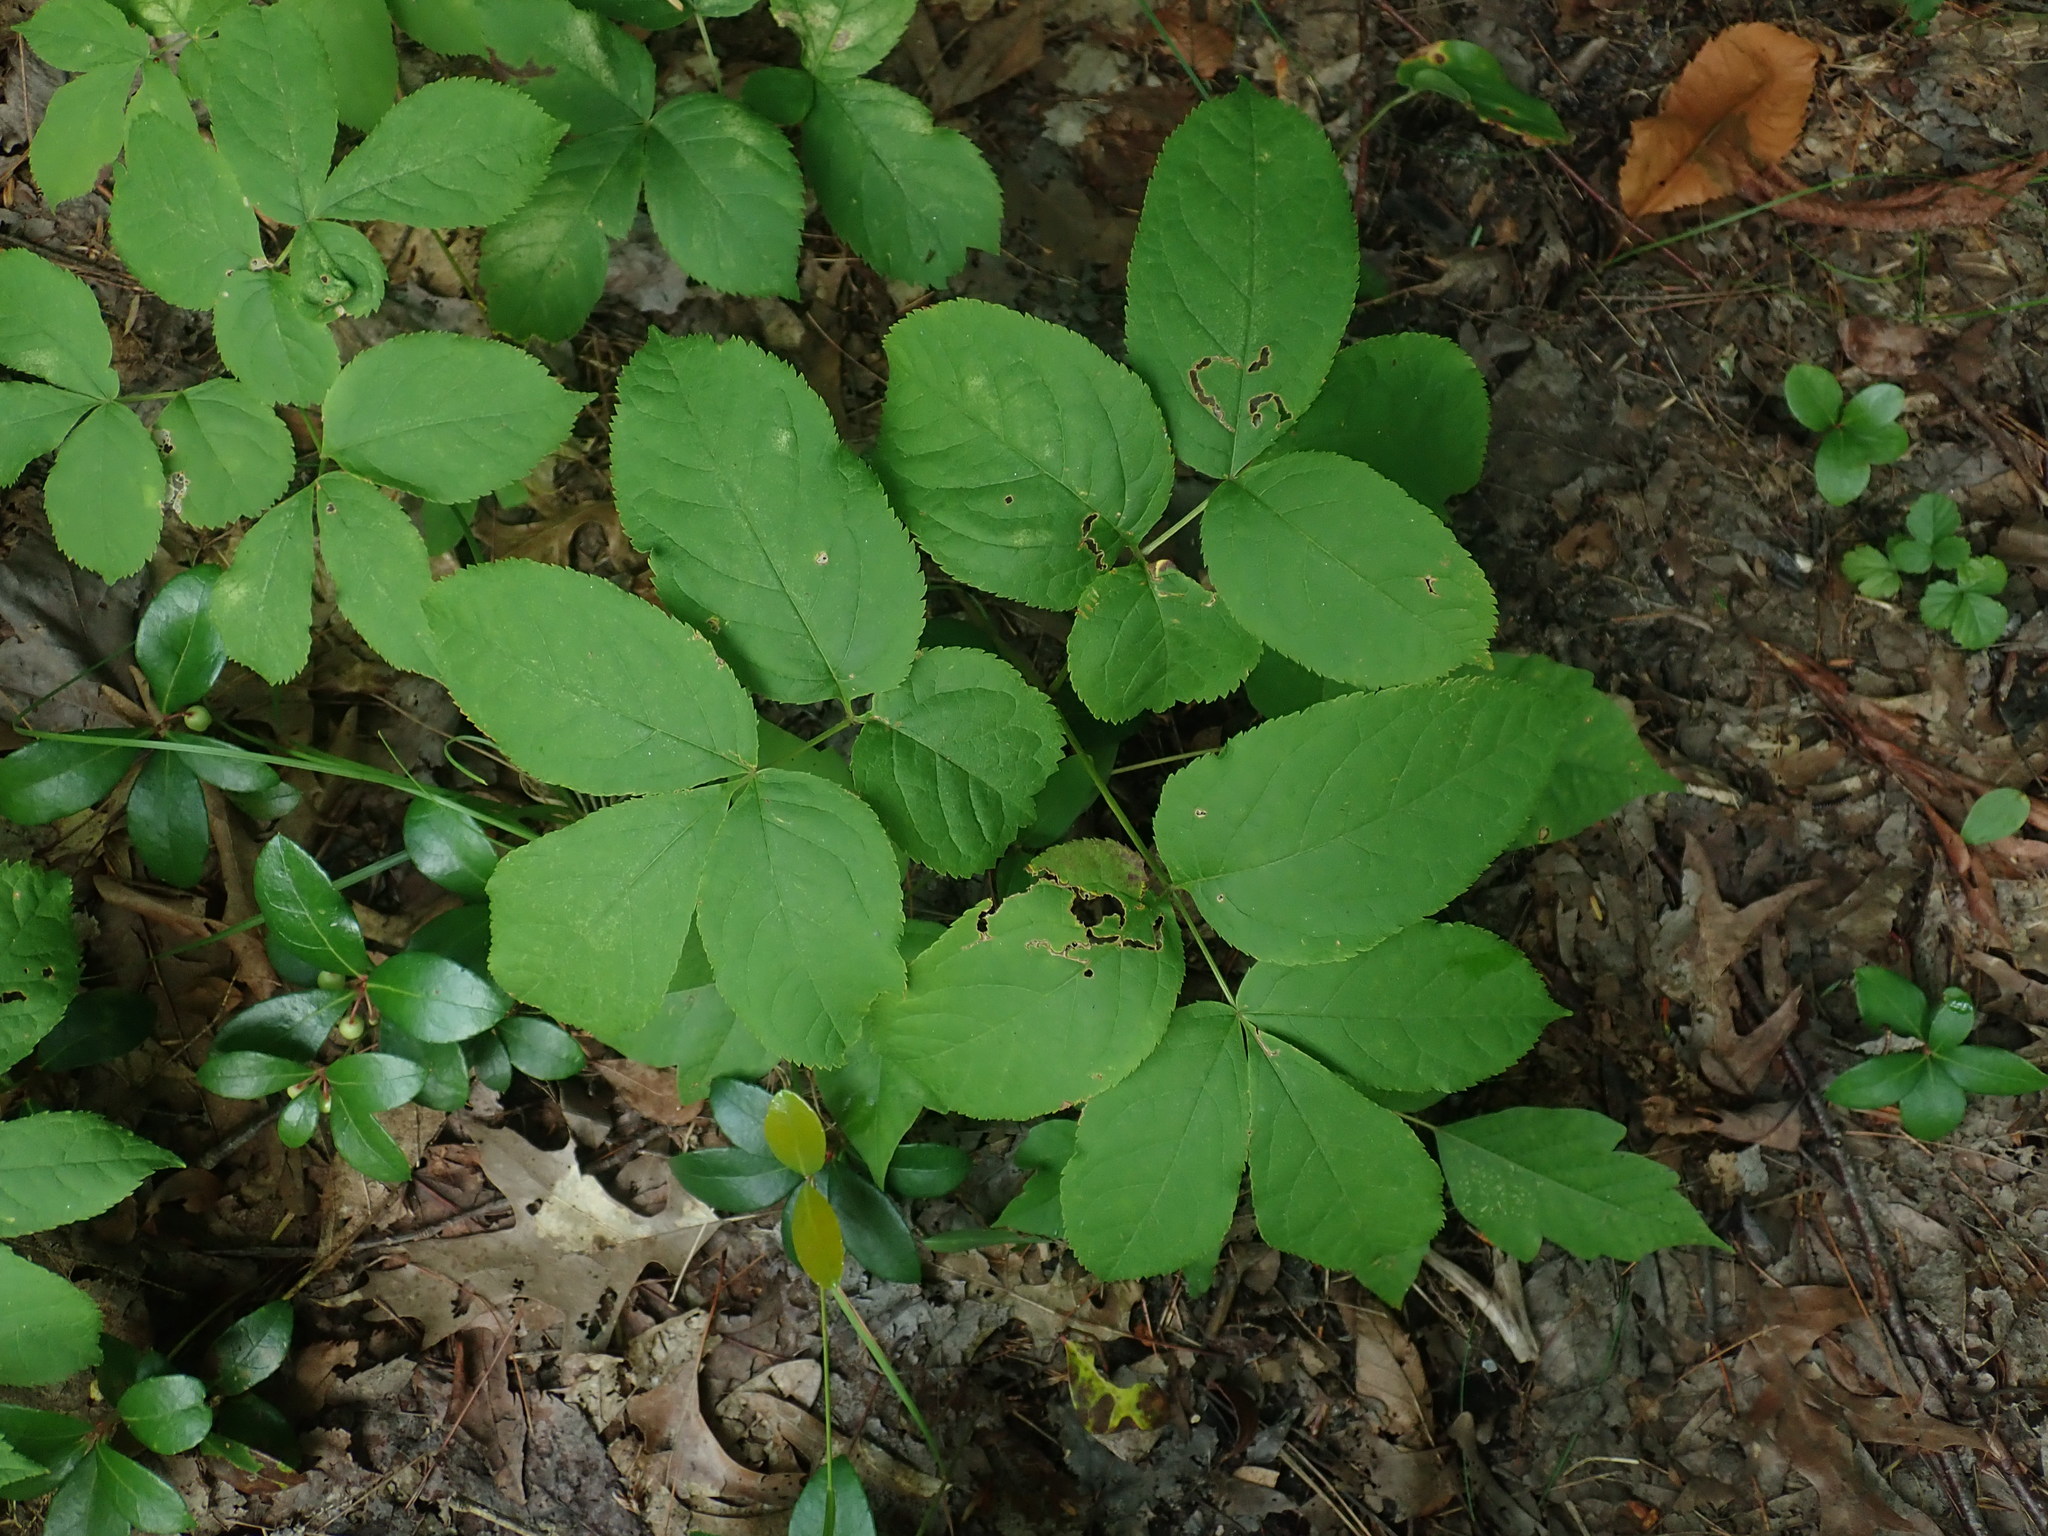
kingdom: Plantae
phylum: Tracheophyta
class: Magnoliopsida
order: Apiales
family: Araliaceae
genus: Aralia
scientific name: Aralia nudicaulis
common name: Wild sarsaparilla
